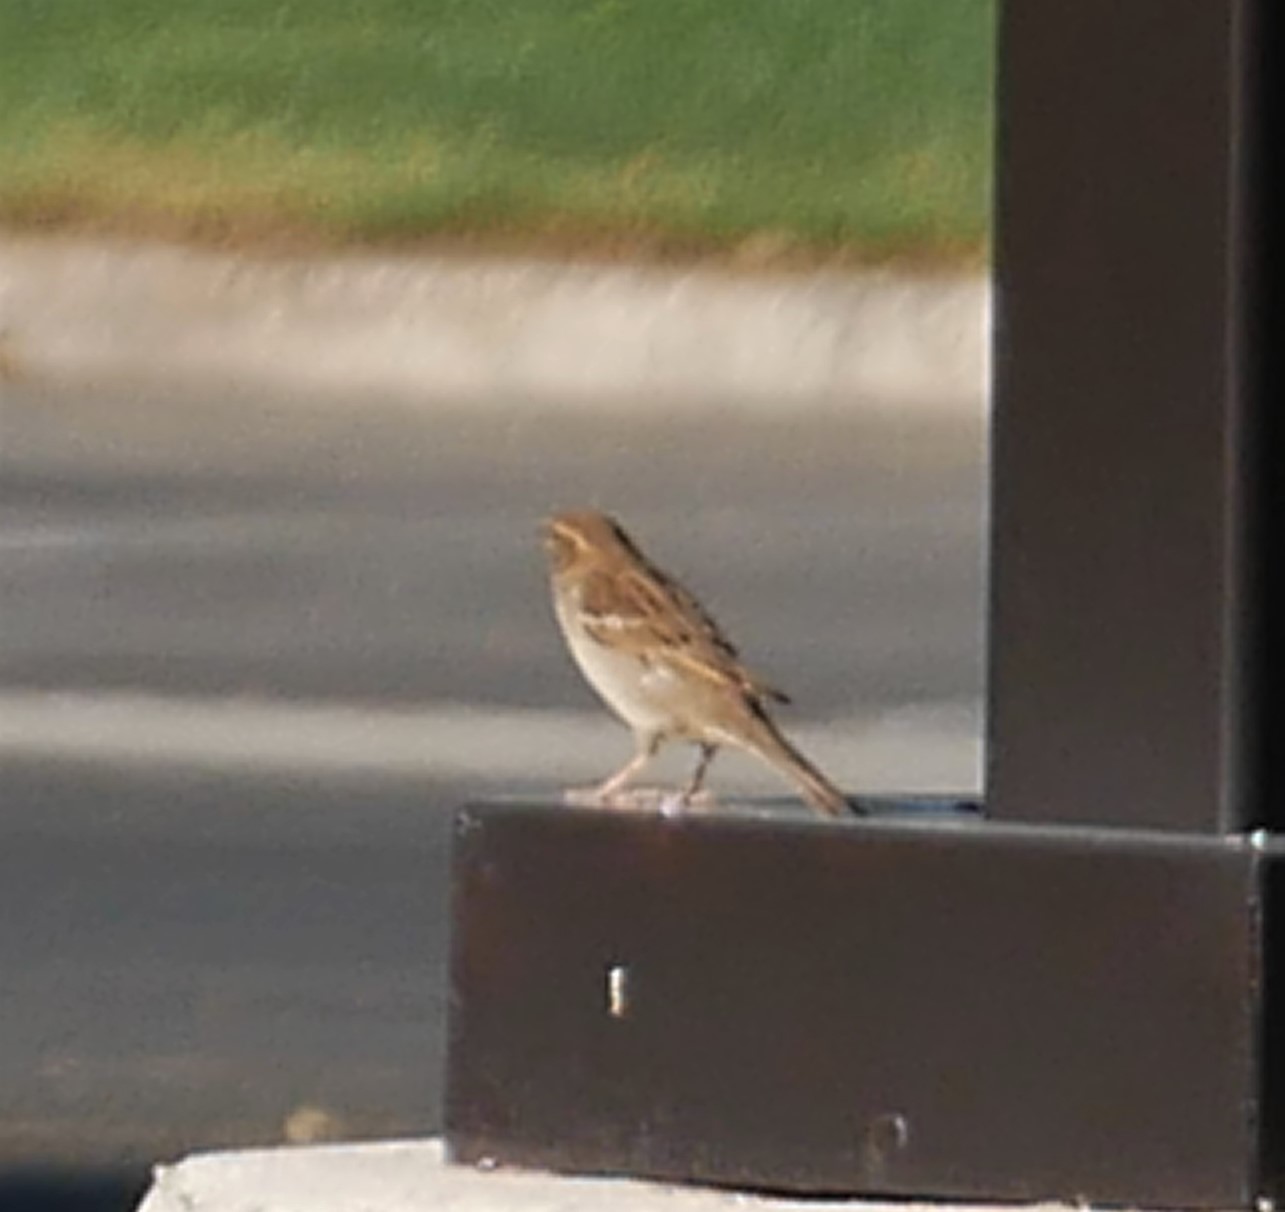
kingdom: Animalia
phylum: Chordata
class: Aves
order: Passeriformes
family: Passeridae
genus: Passer
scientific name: Passer domesticus
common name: House sparrow
